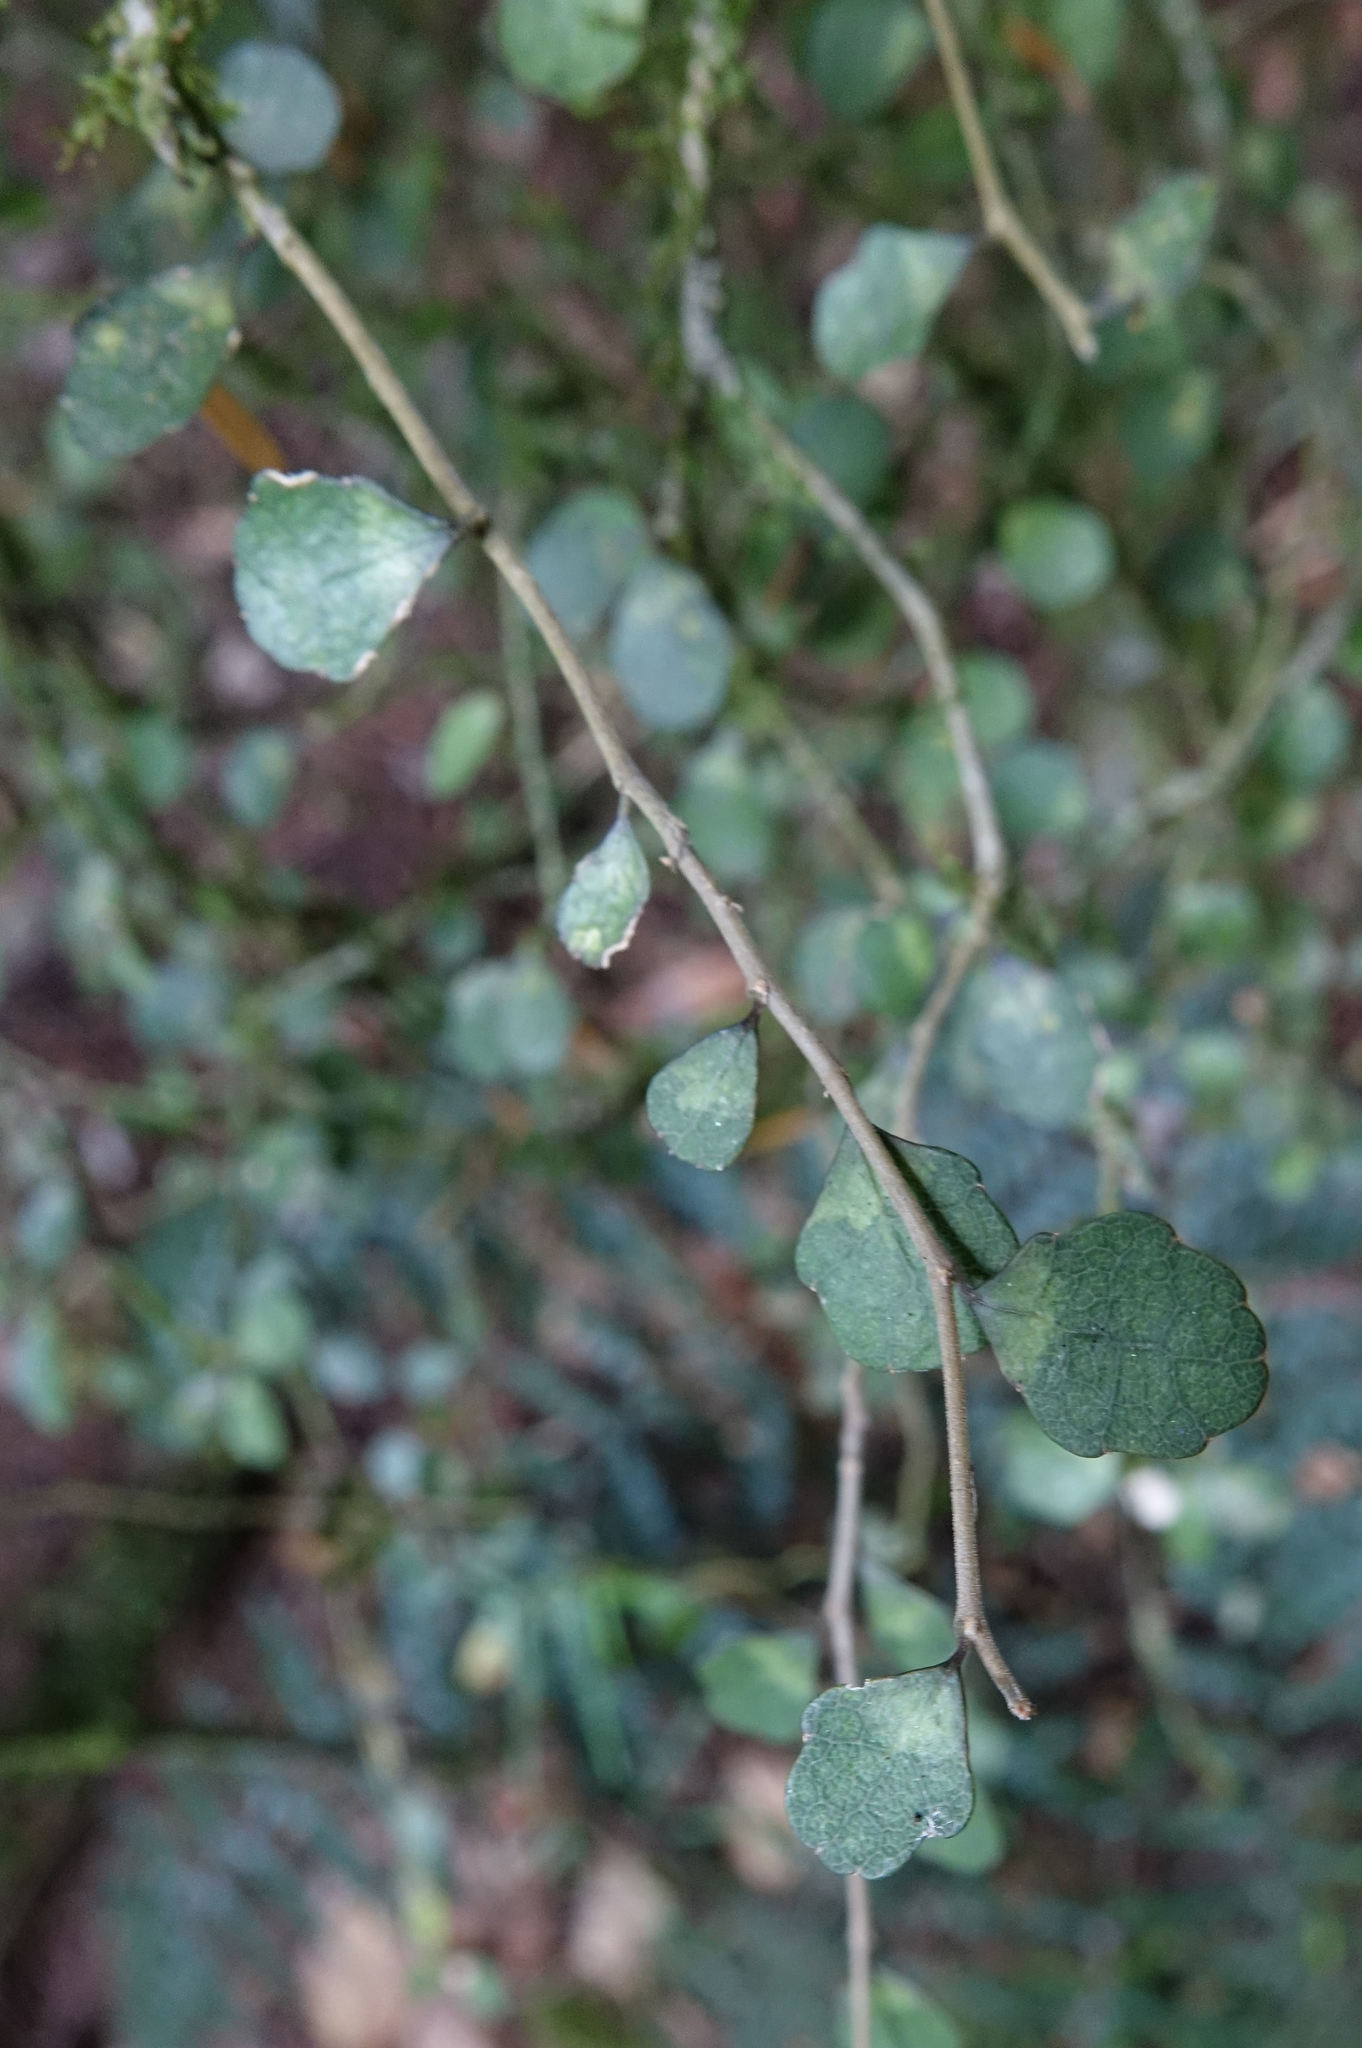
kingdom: Plantae
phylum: Tracheophyta
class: Magnoliopsida
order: Malpighiales
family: Violaceae
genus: Melicytus
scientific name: Melicytus micranthus
